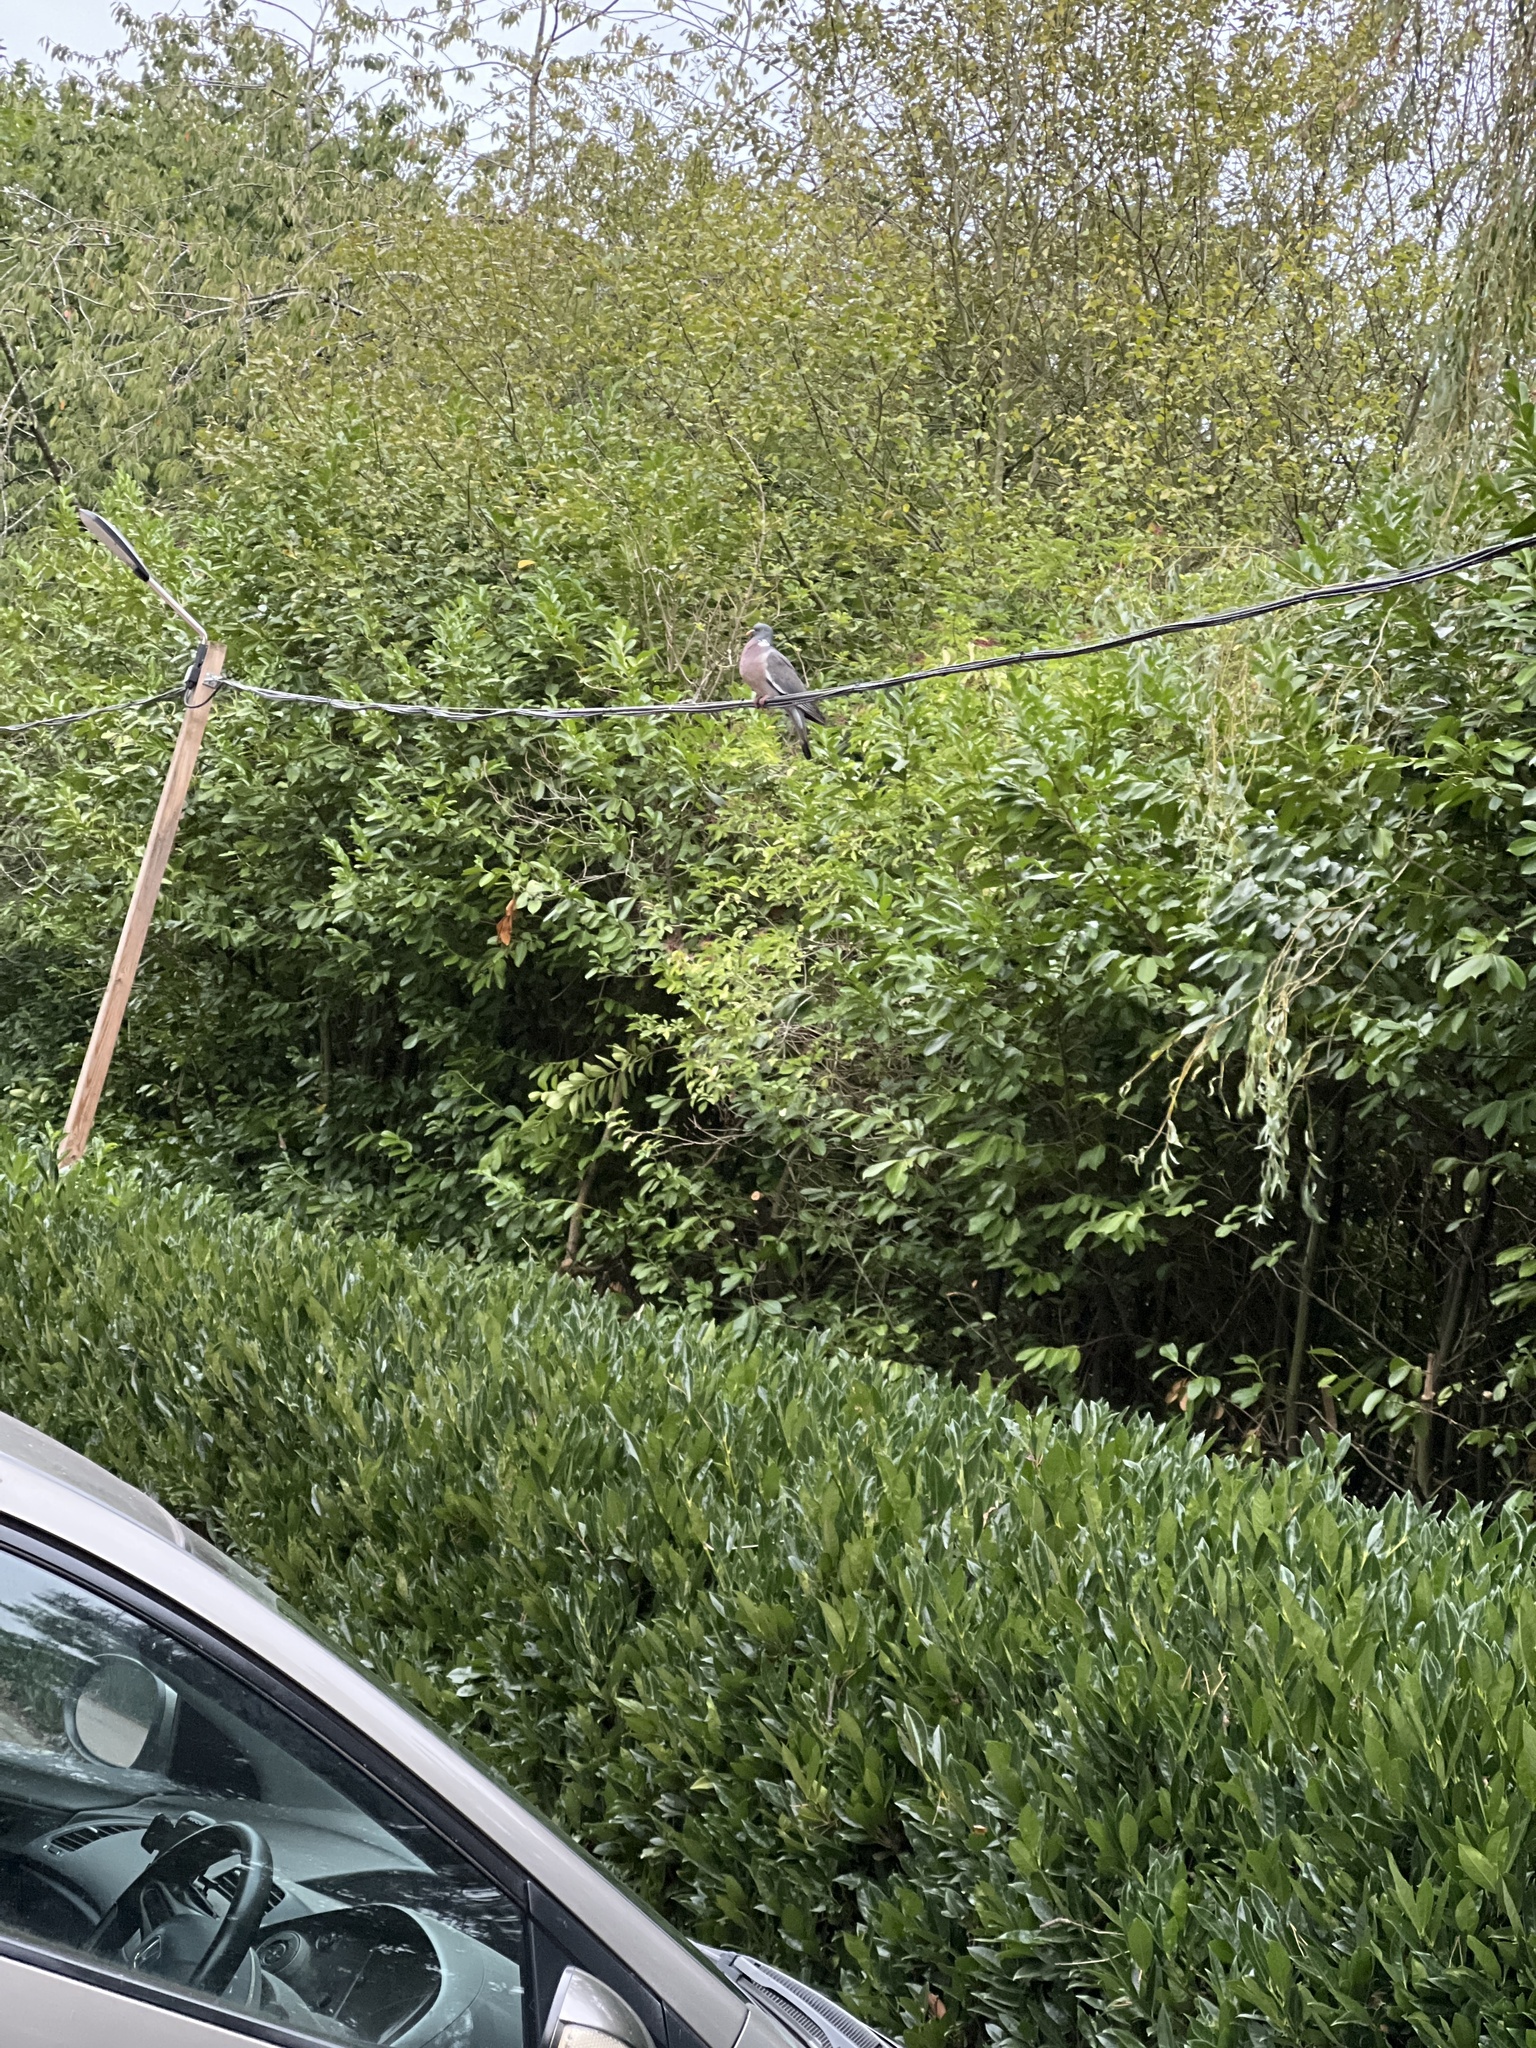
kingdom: Animalia
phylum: Chordata
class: Aves
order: Columbiformes
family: Columbidae
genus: Columba
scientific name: Columba palumbus
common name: Common wood pigeon
